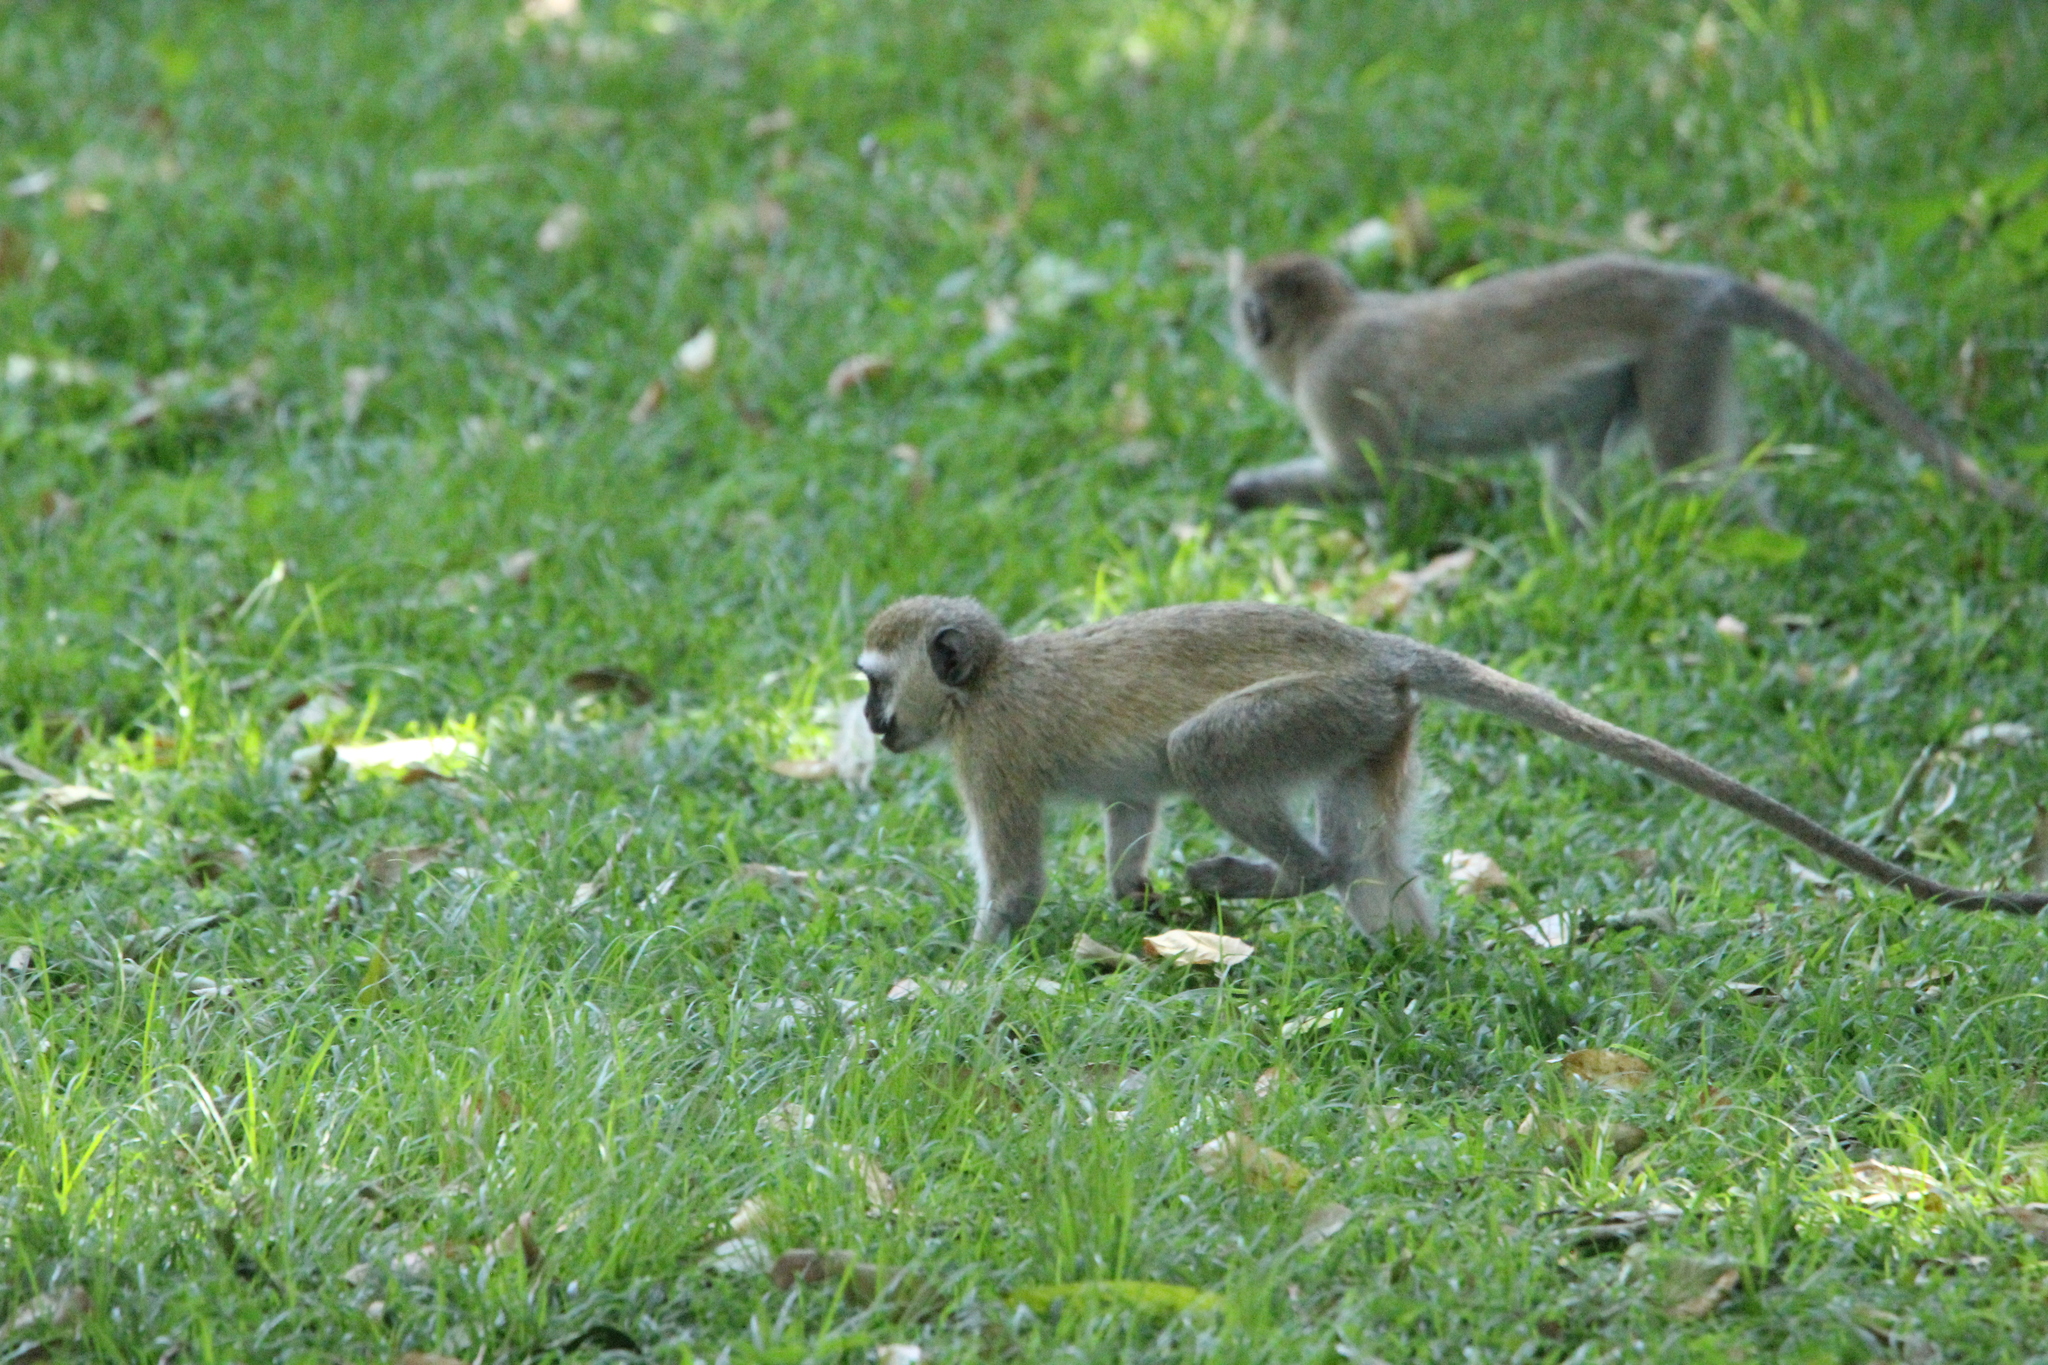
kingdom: Animalia
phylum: Chordata
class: Mammalia
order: Primates
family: Cercopithecidae
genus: Chlorocebus
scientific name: Chlorocebus pygerythrus
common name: Vervet monkey
